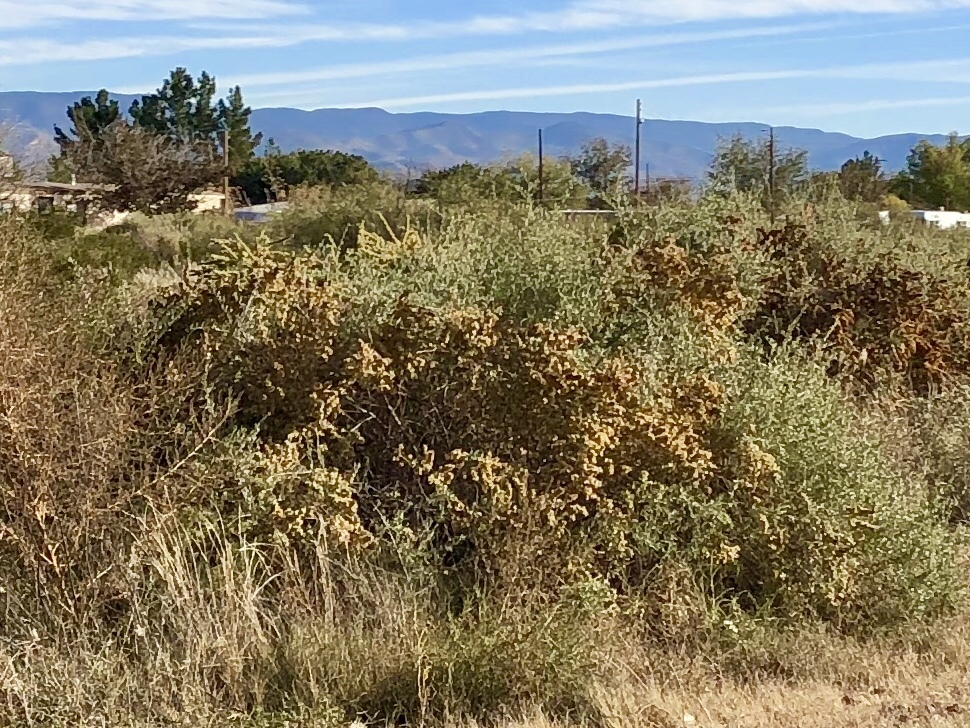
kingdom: Plantae
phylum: Tracheophyta
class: Magnoliopsida
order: Caryophyllales
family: Amaranthaceae
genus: Atriplex
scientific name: Atriplex canescens
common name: Four-wing saltbush
